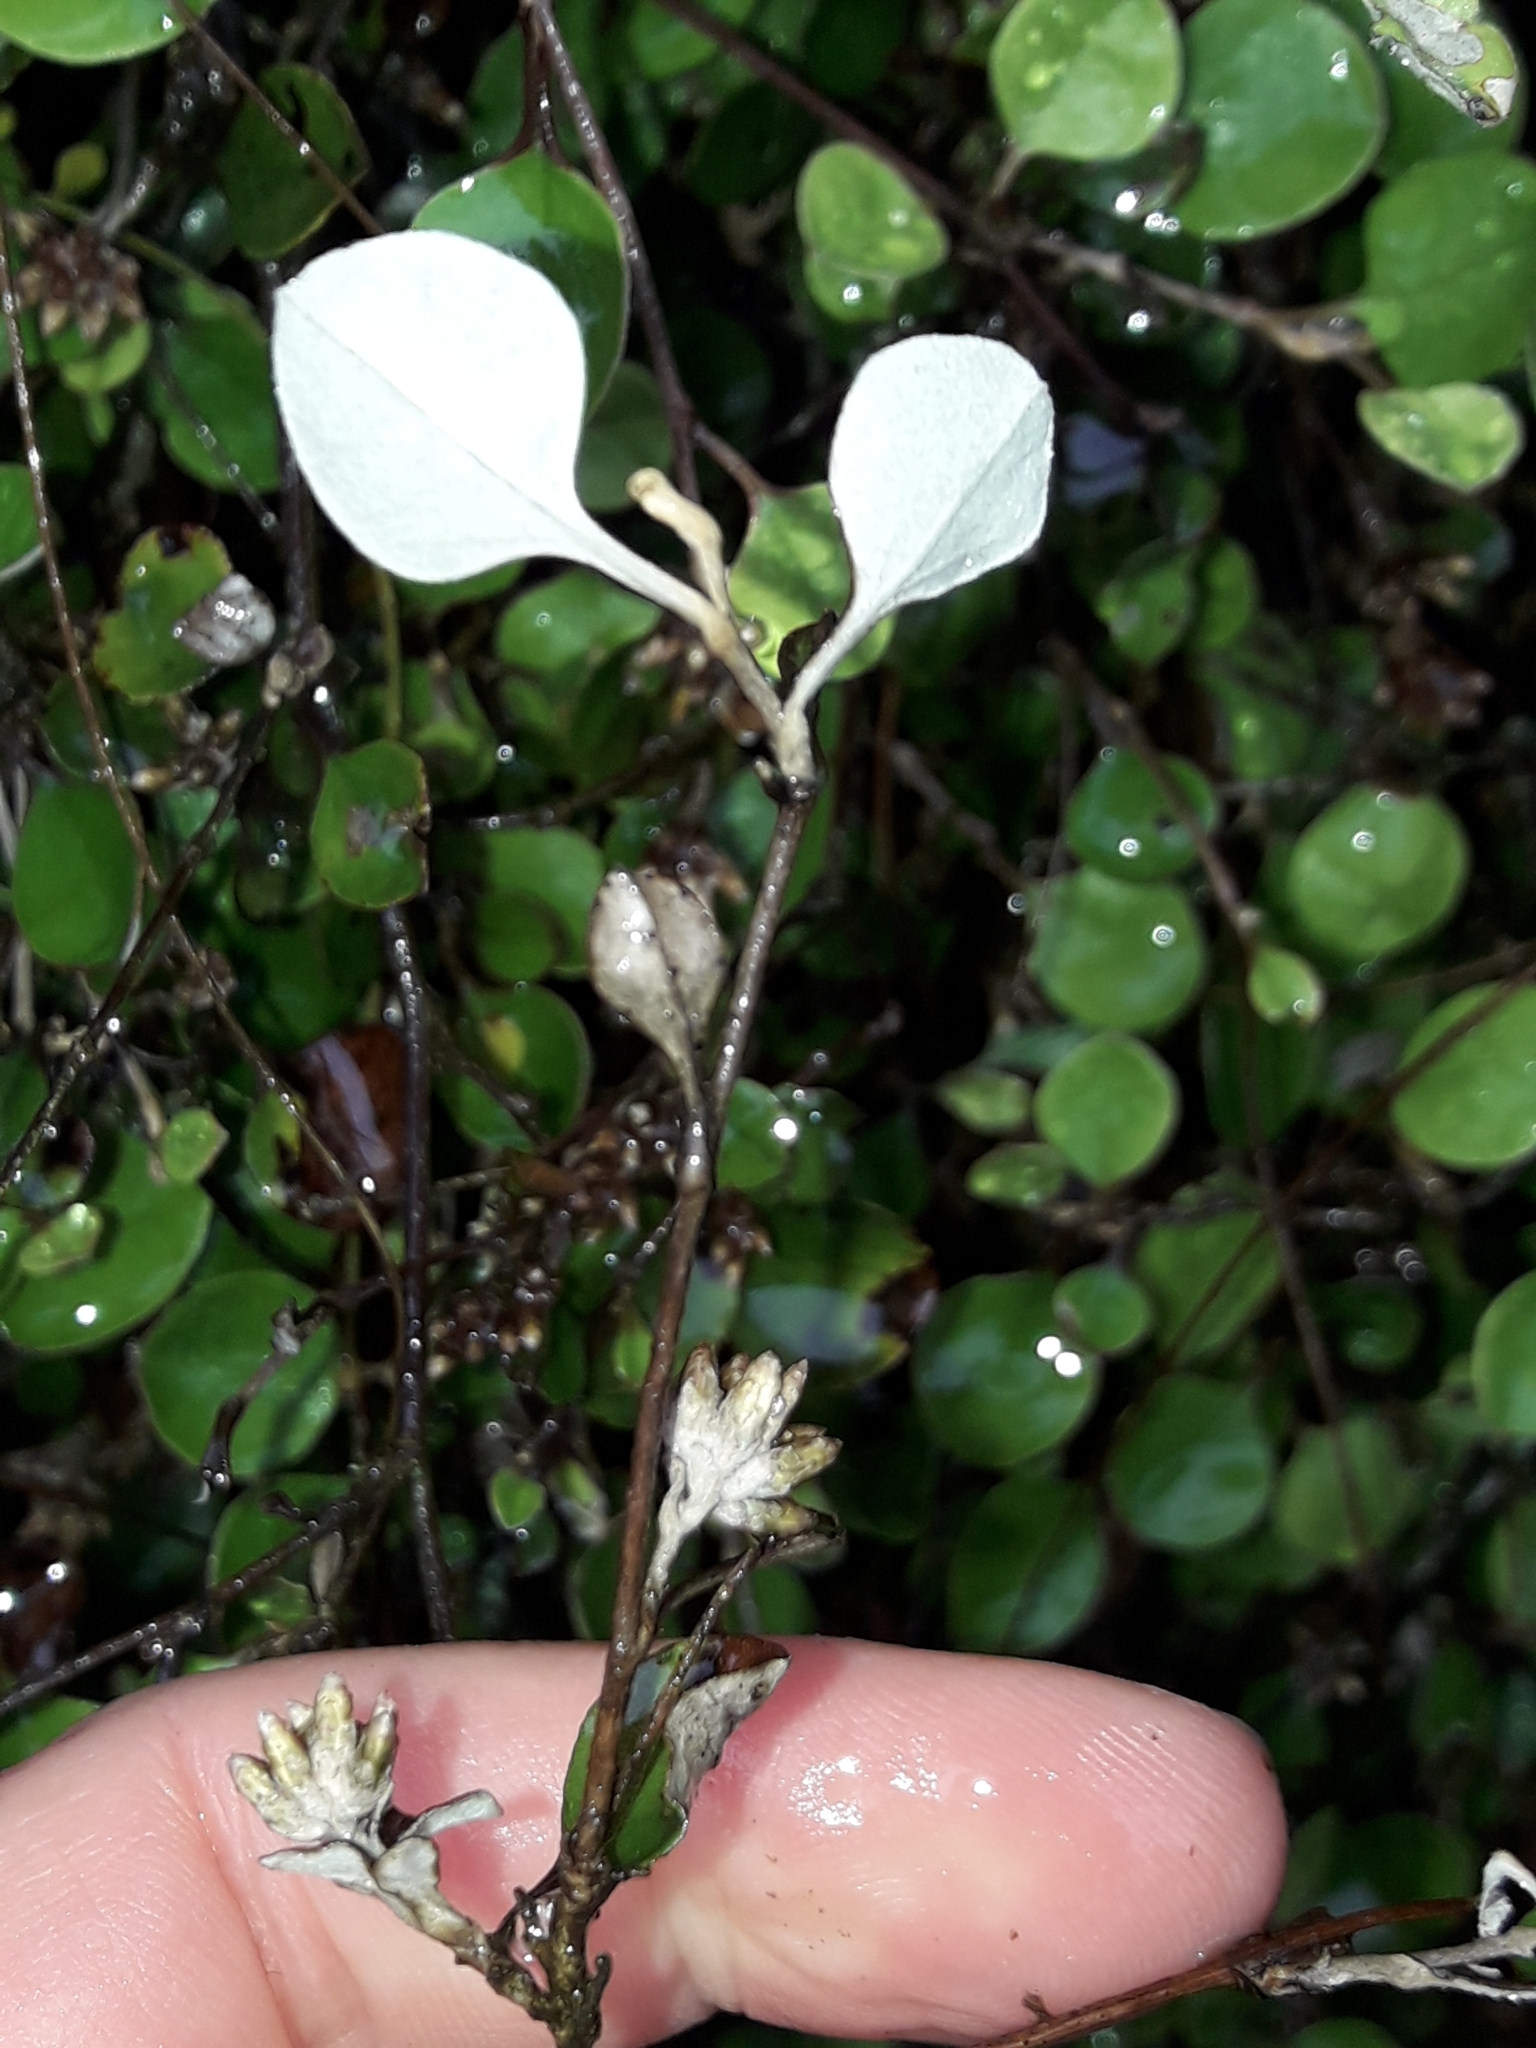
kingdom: Plantae
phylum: Tracheophyta
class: Magnoliopsida
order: Asterales
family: Asteraceae
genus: Ozothamnus
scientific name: Ozothamnus glomeratus
